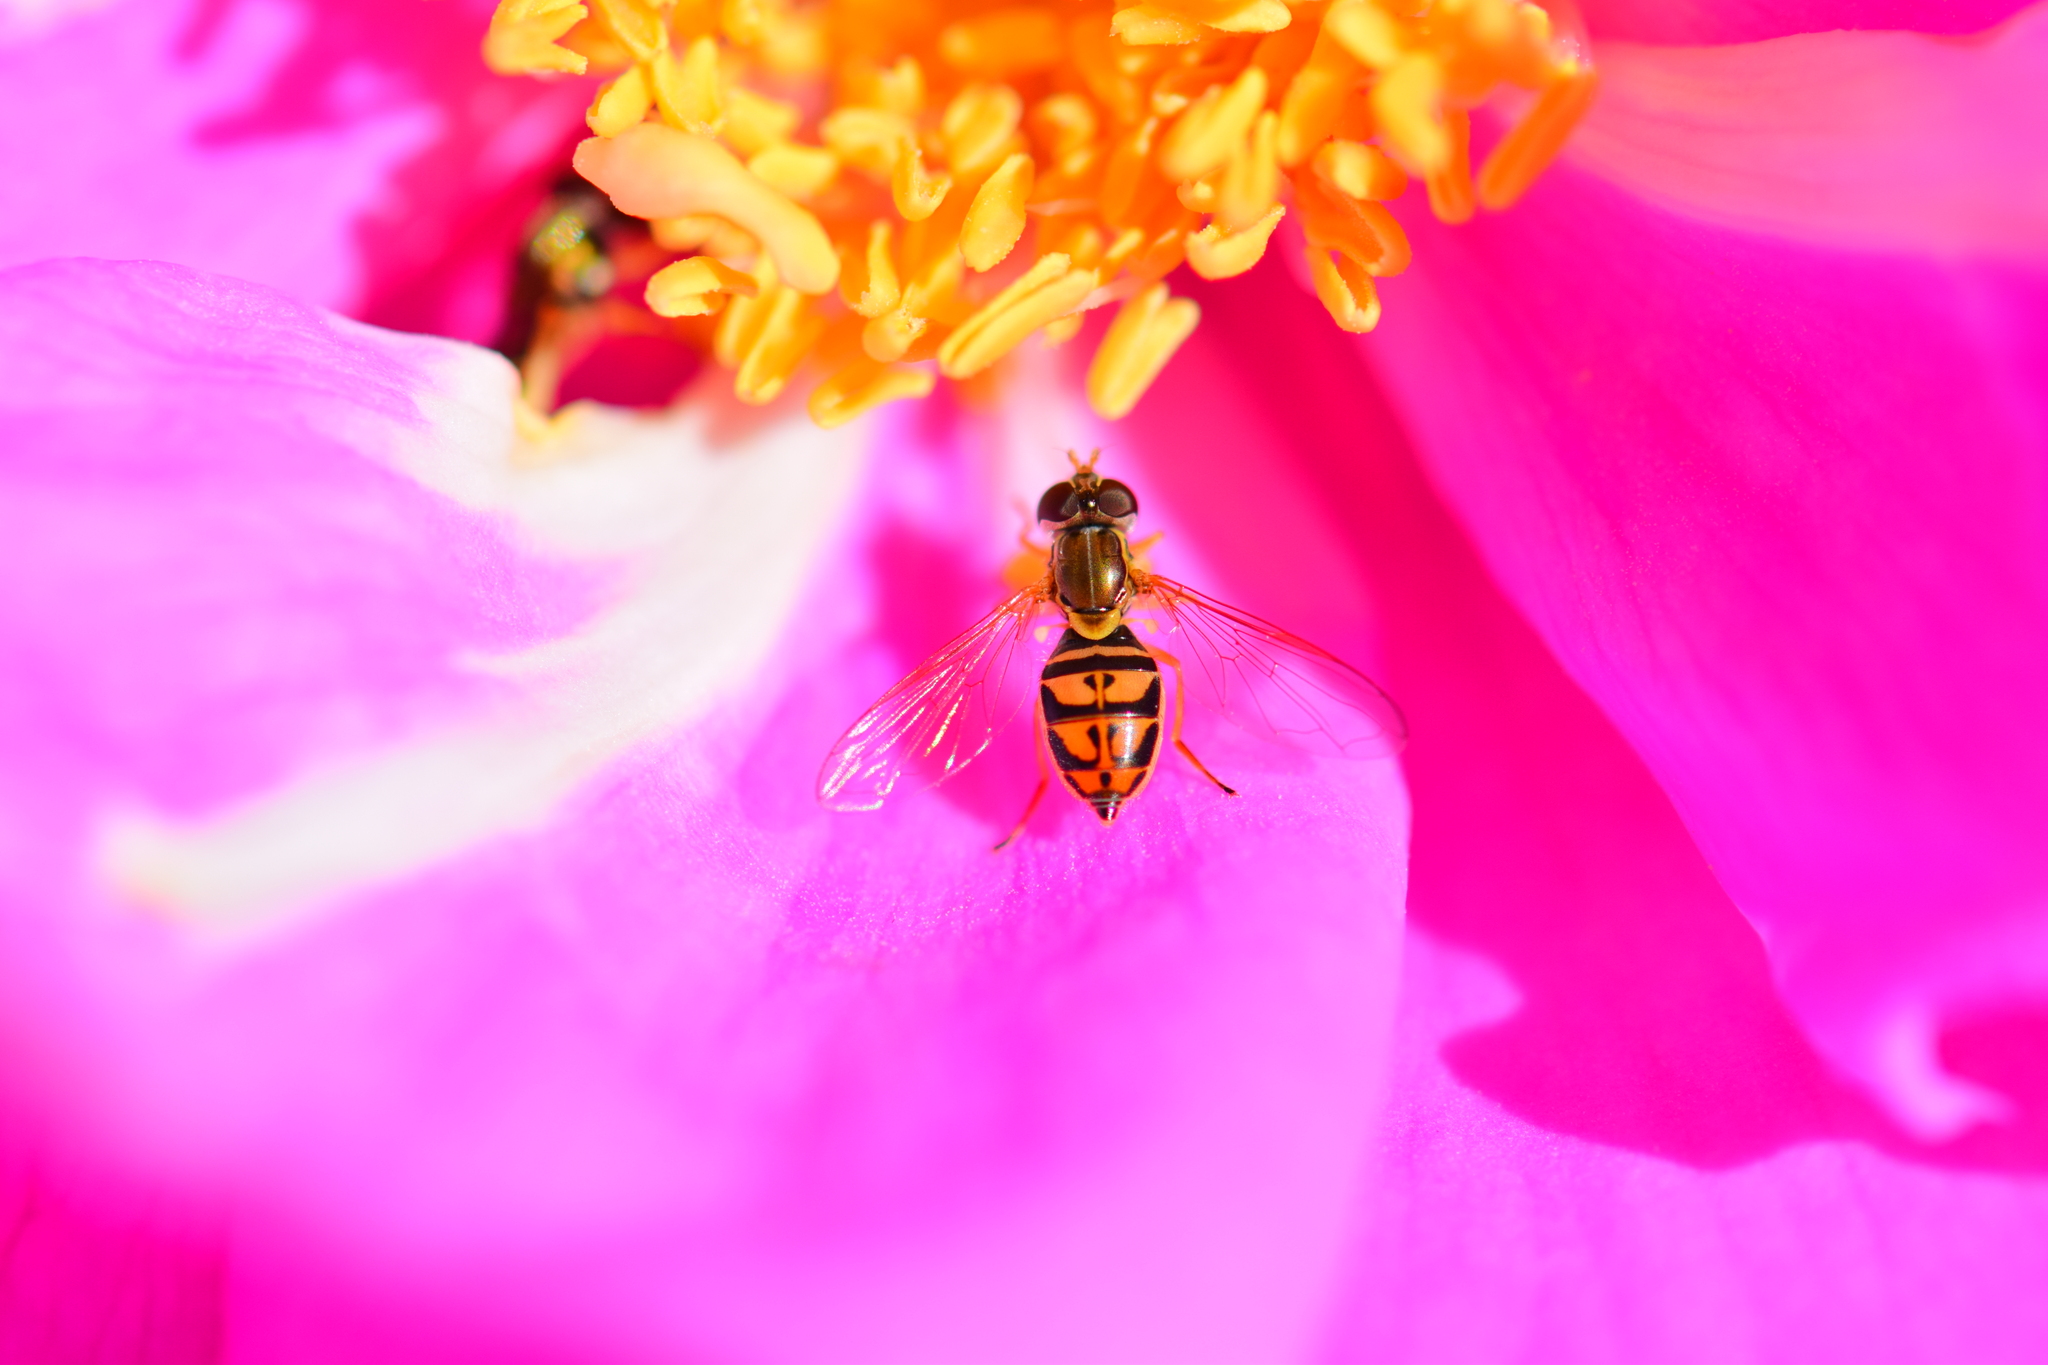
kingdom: Animalia
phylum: Arthropoda
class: Insecta
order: Diptera
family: Syrphidae
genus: Toxomerus
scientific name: Toxomerus marginatus
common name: Syrphid fly
